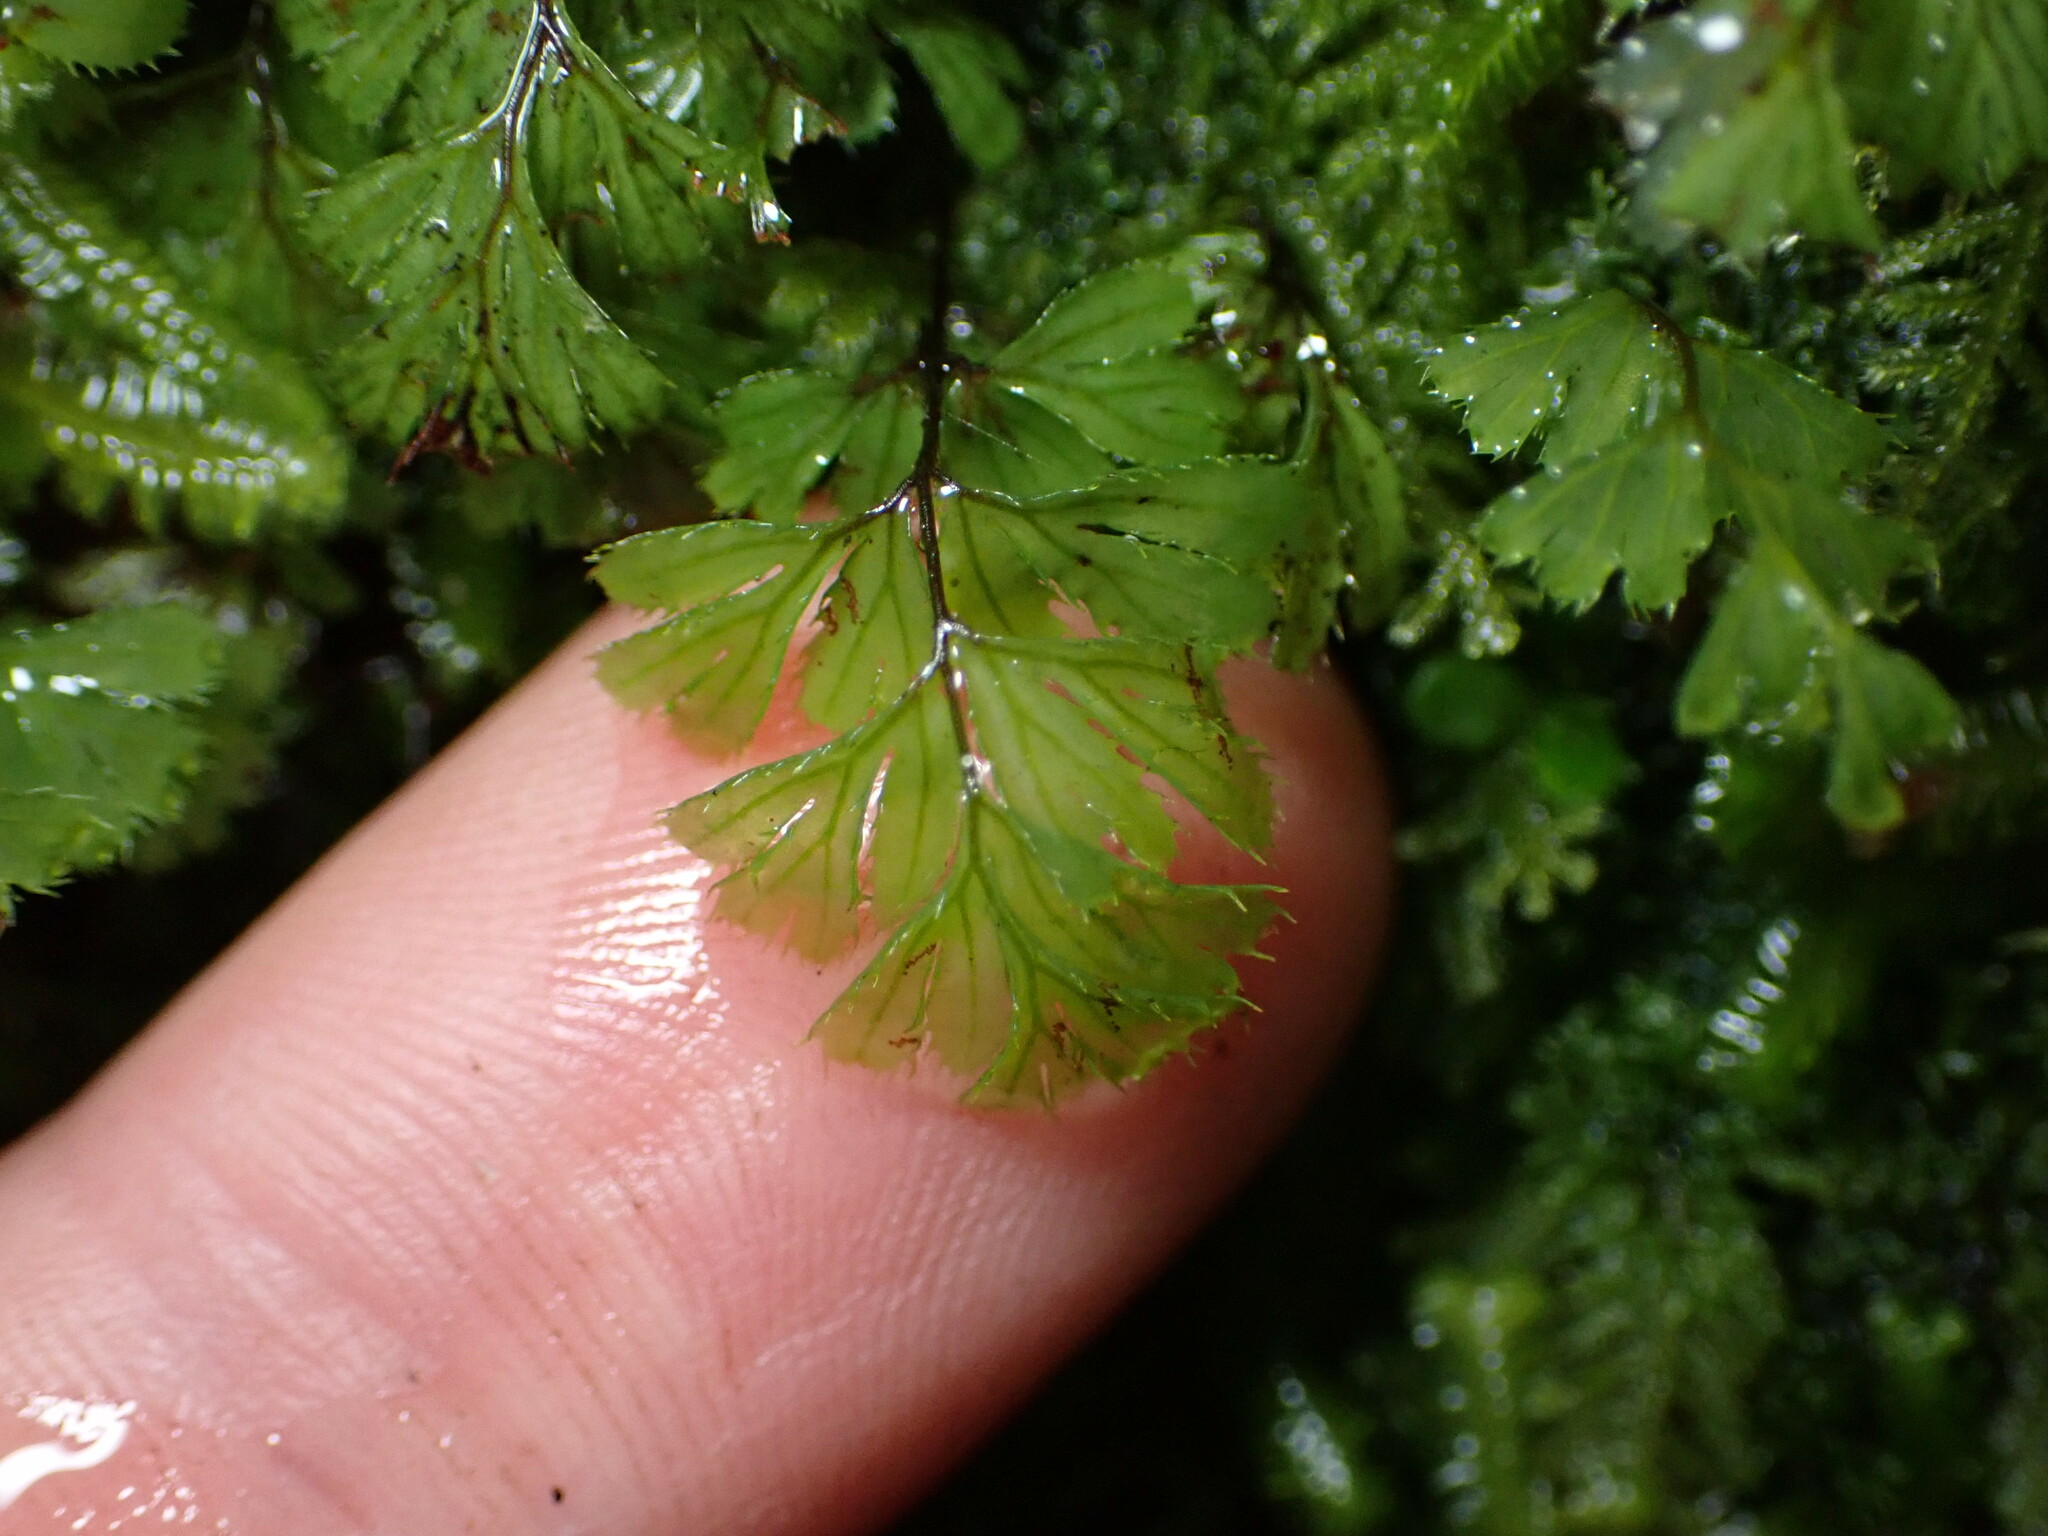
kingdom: Plantae
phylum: Tracheophyta
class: Polypodiopsida
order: Hymenophyllales
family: Hymenophyllaceae
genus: Hymenophyllum
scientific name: Hymenophyllum revolutum
